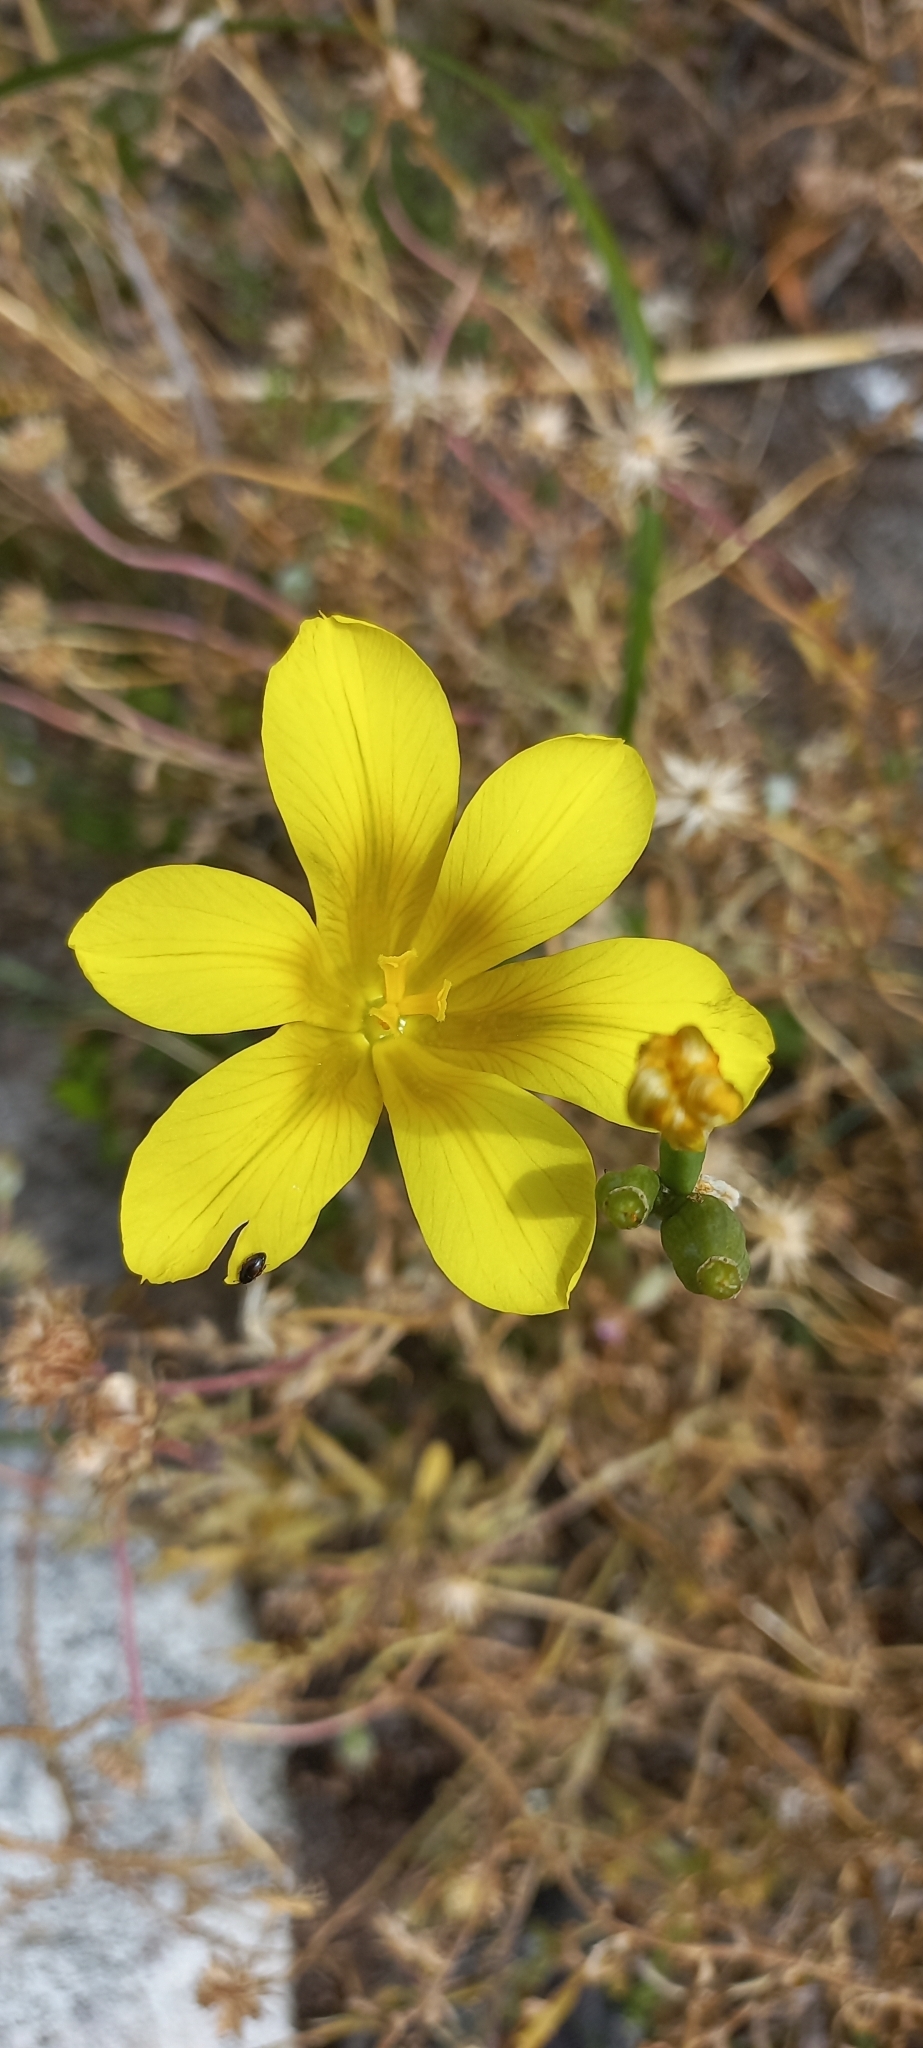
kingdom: Plantae
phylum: Tracheophyta
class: Liliopsida
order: Asparagales
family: Iridaceae
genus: Moraea
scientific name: Moraea ochroleuca
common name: Red tulp
